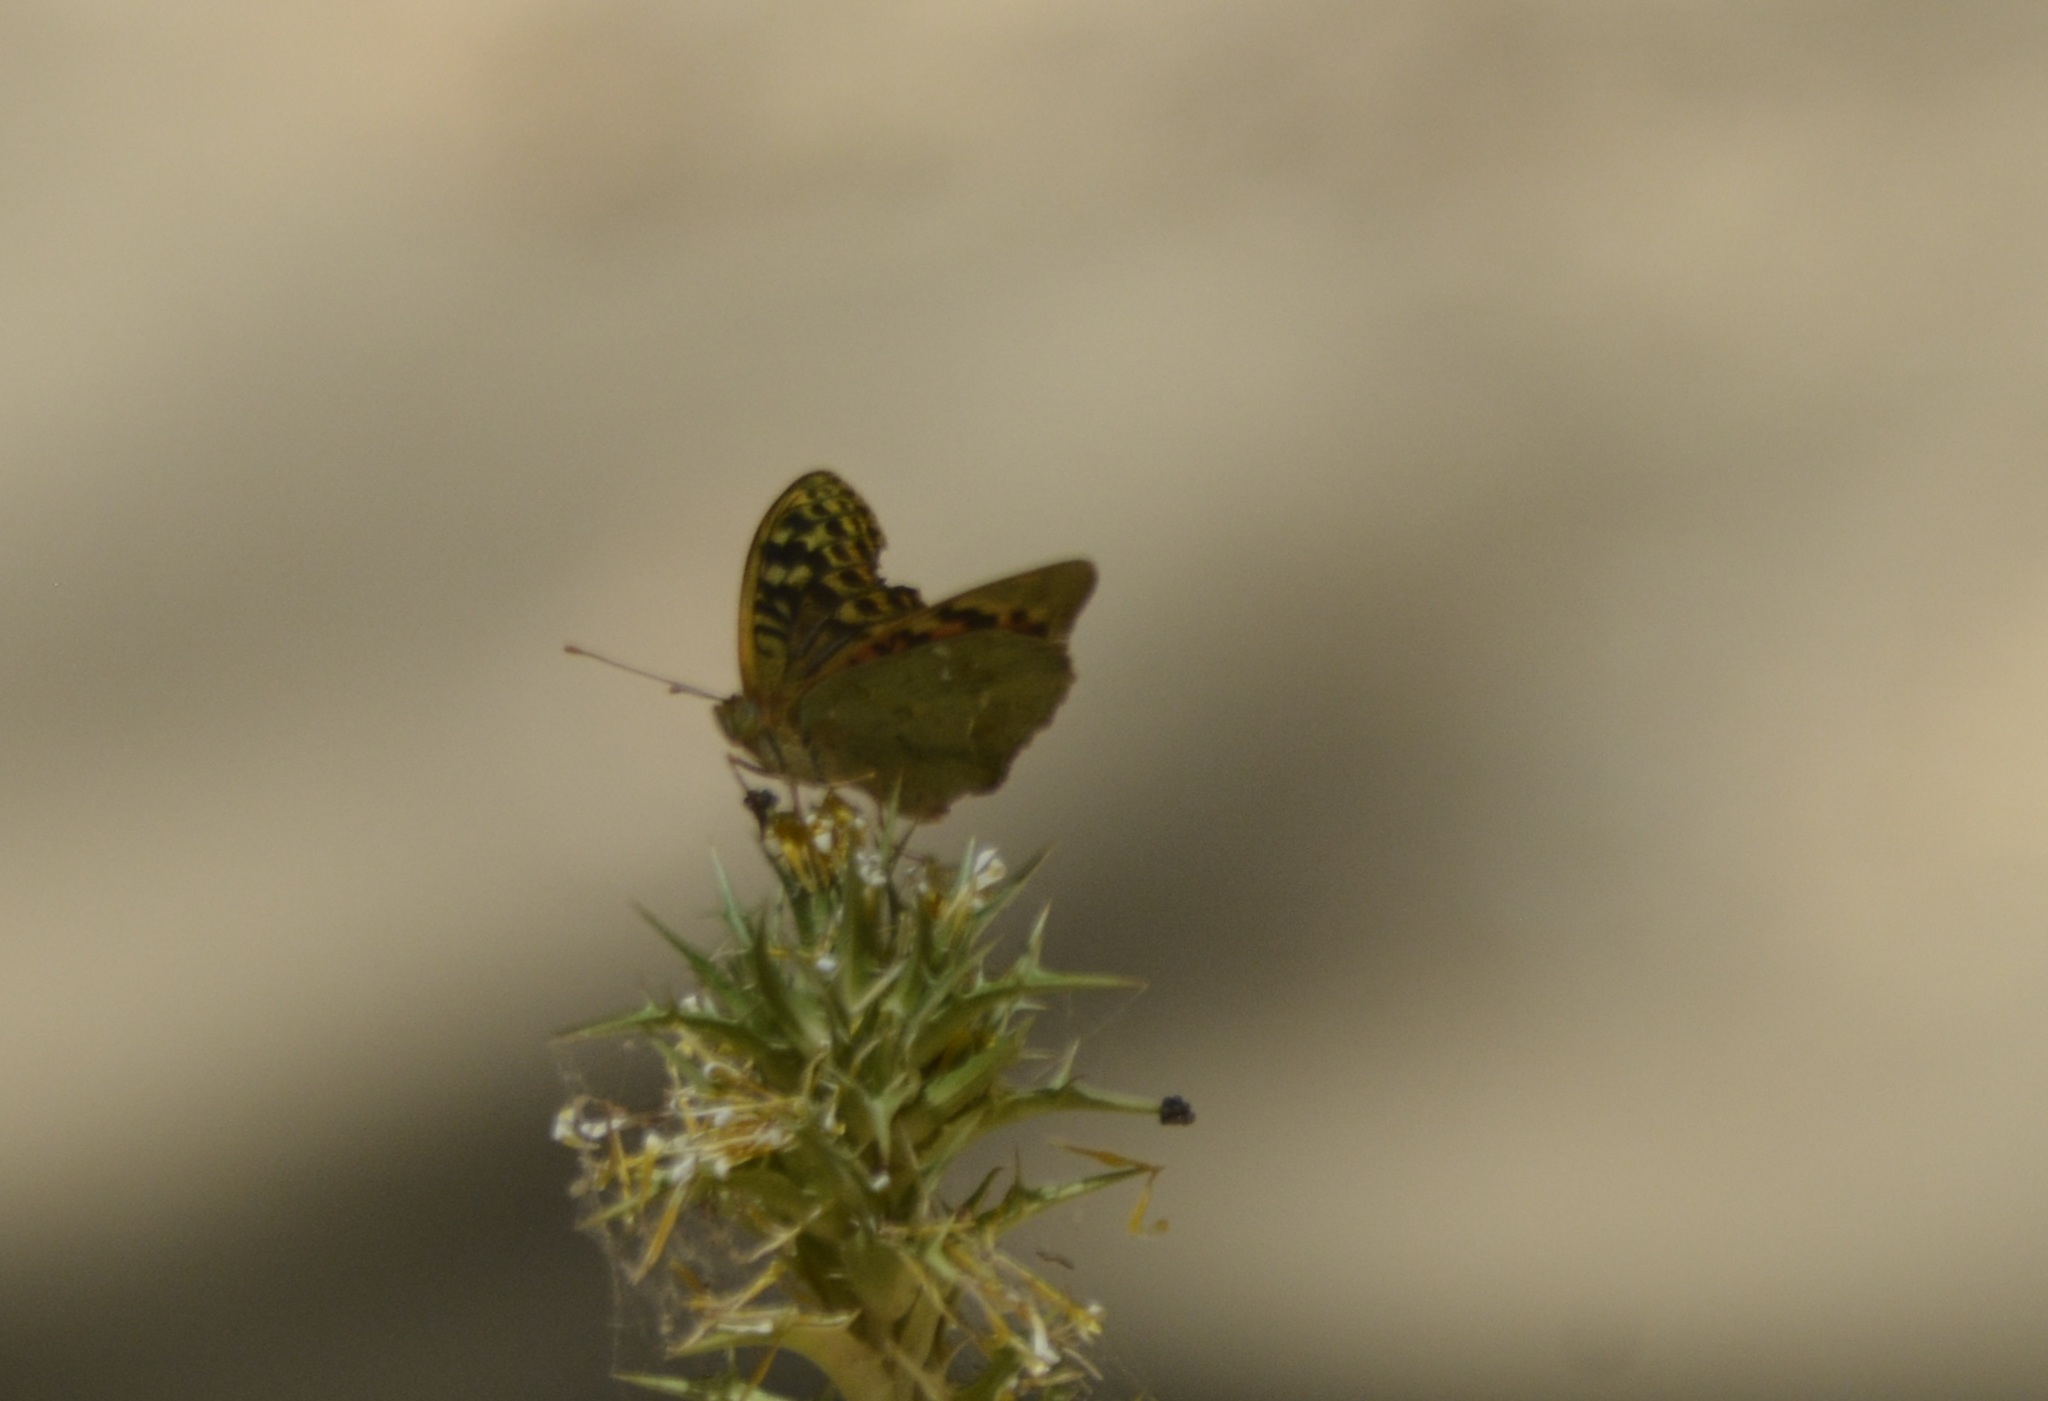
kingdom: Animalia
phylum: Arthropoda
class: Insecta
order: Lepidoptera
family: Nymphalidae
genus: Damora
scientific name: Damora pandora
